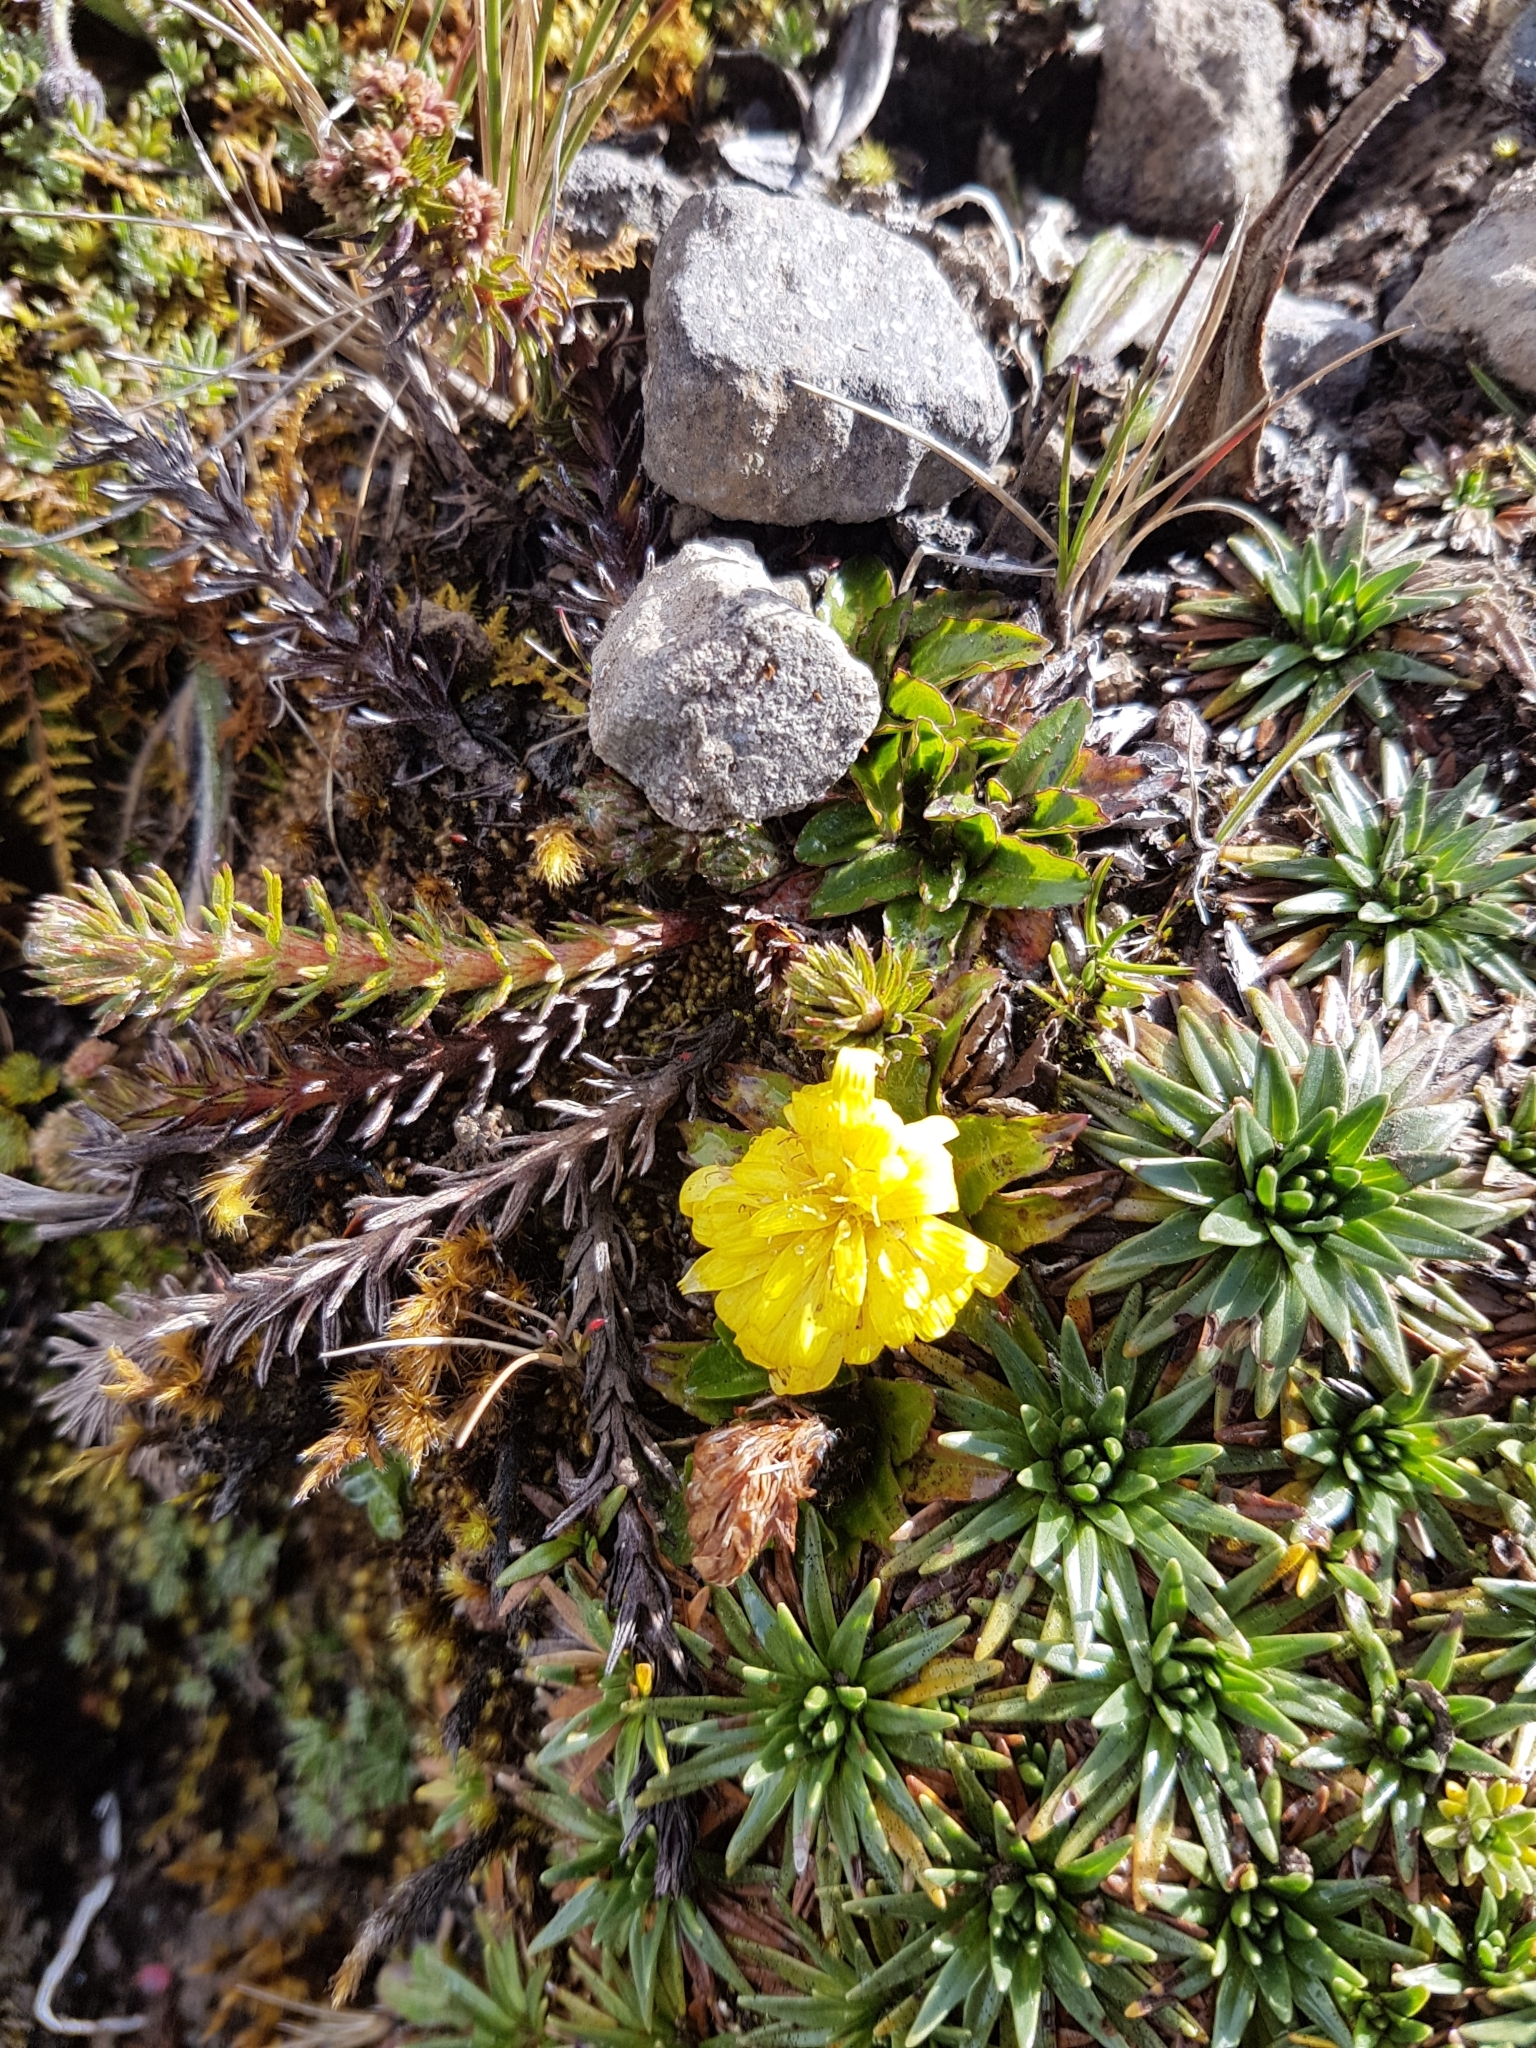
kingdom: Plantae
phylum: Tracheophyta
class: Magnoliopsida
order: Asterales
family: Asteraceae
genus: Hypochaeris
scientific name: Hypochaeris sessiliflora
